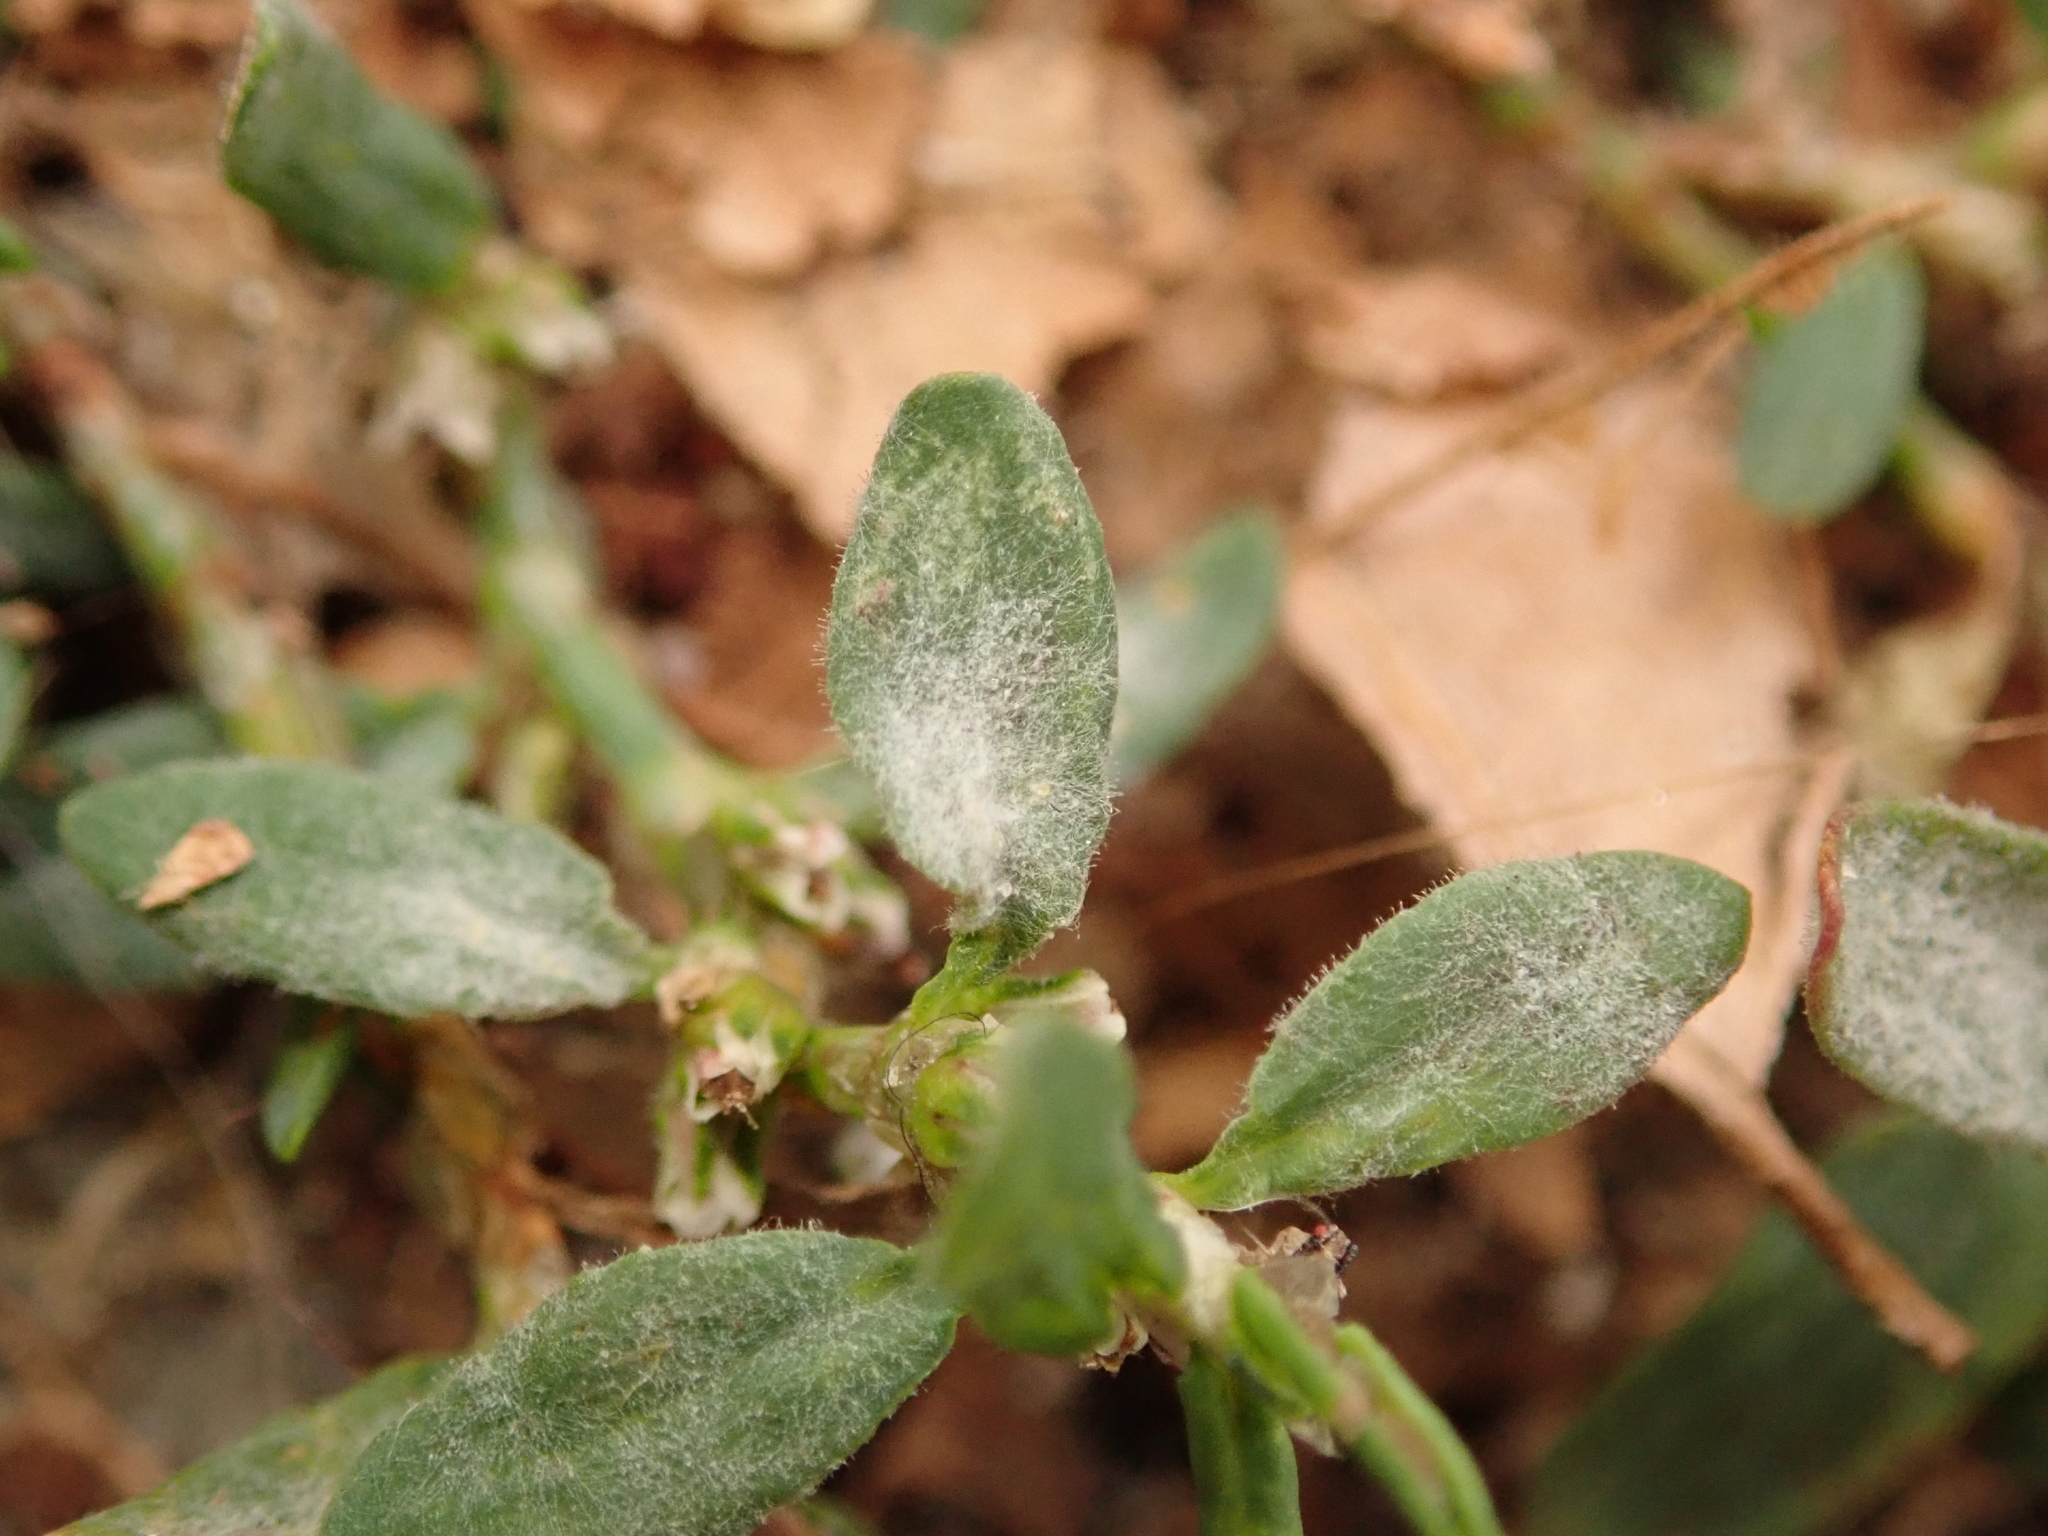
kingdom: Fungi
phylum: Ascomycota
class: Leotiomycetes
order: Helotiales
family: Erysiphaceae
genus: Erysiphe
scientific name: Erysiphe polygoni
